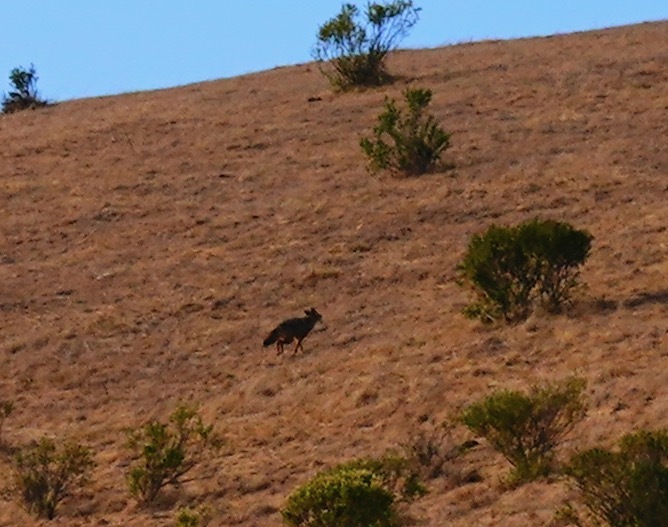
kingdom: Animalia
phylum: Chordata
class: Mammalia
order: Carnivora
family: Canidae
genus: Canis
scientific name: Canis latrans
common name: Coyote
